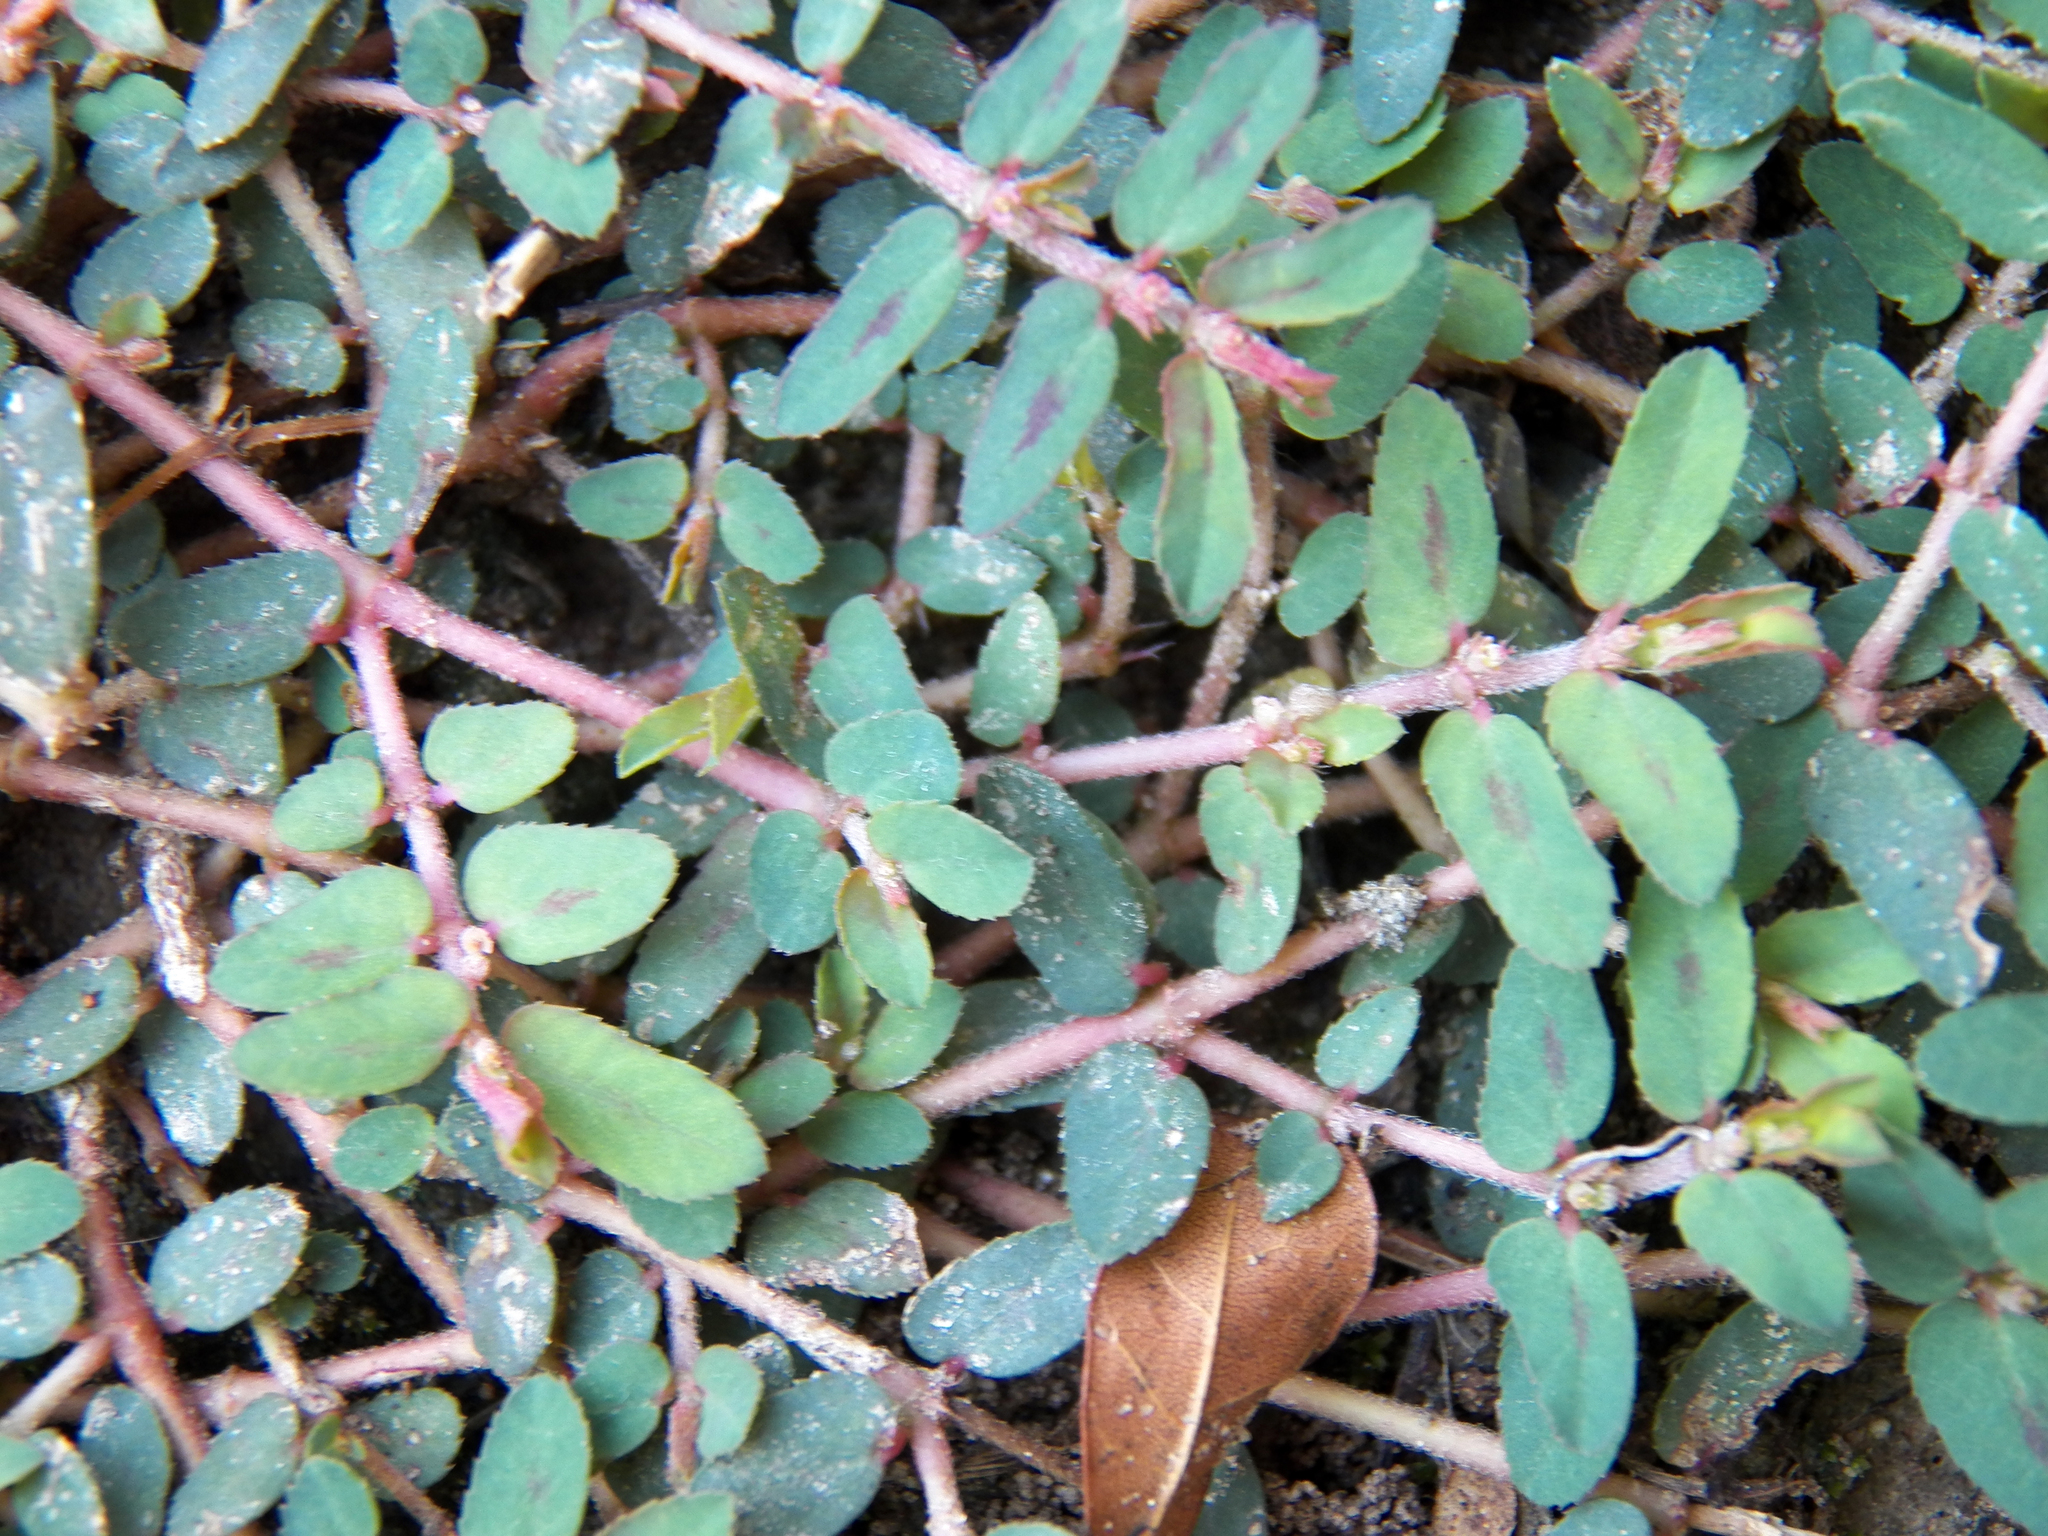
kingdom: Plantae
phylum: Tracheophyta
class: Magnoliopsida
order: Malpighiales
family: Euphorbiaceae
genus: Euphorbia
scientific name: Euphorbia maculata
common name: Spotted spurge
